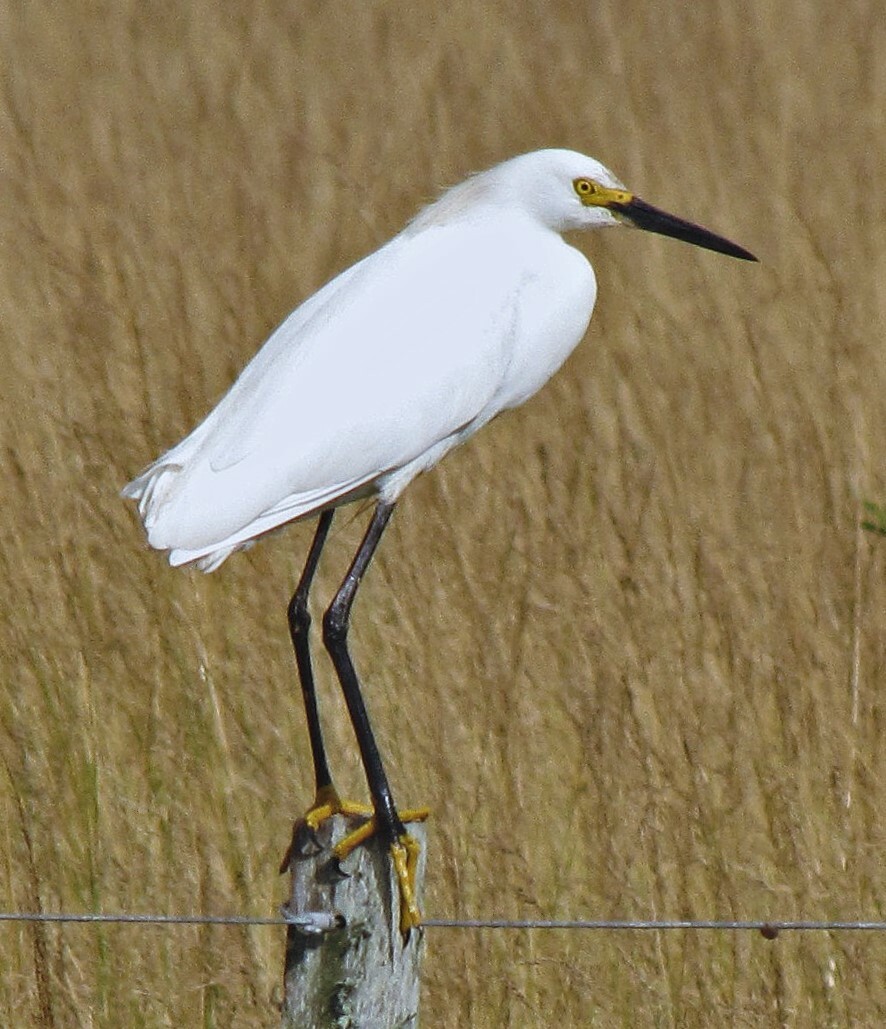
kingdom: Animalia
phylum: Chordata
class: Aves
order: Pelecaniformes
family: Ardeidae
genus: Egretta
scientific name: Egretta thula
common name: Snowy egret
